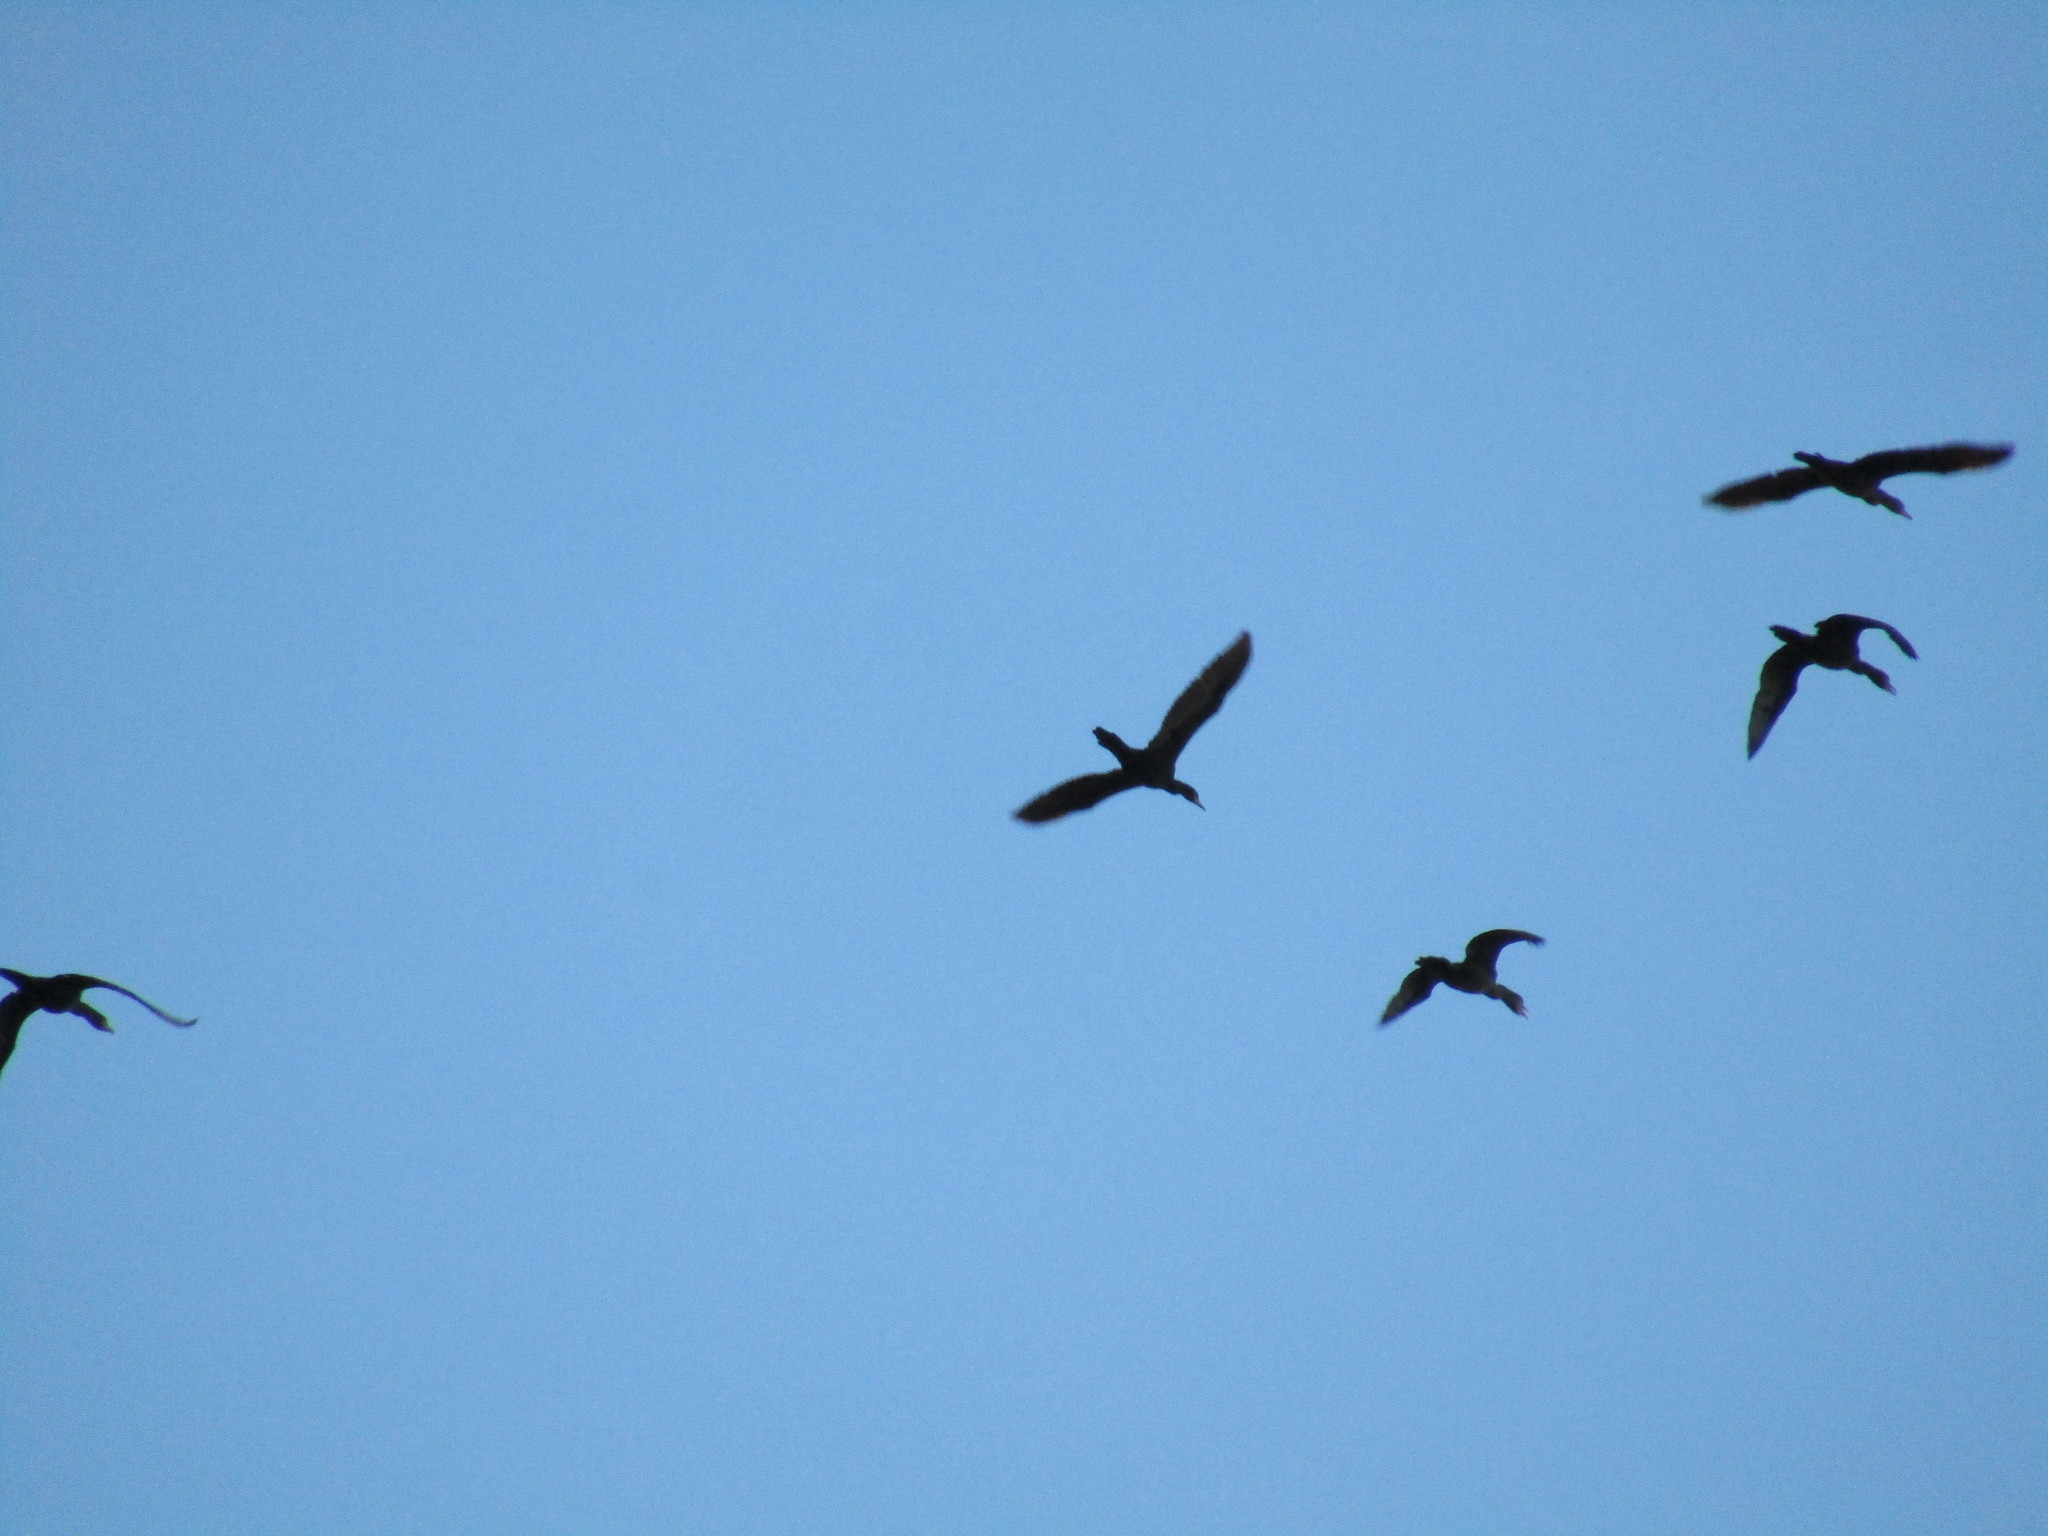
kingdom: Animalia
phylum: Chordata
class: Aves
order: Suliformes
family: Phalacrocoracidae
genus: Phalacrocorax
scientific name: Phalacrocorax brasilianus
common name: Neotropic cormorant
